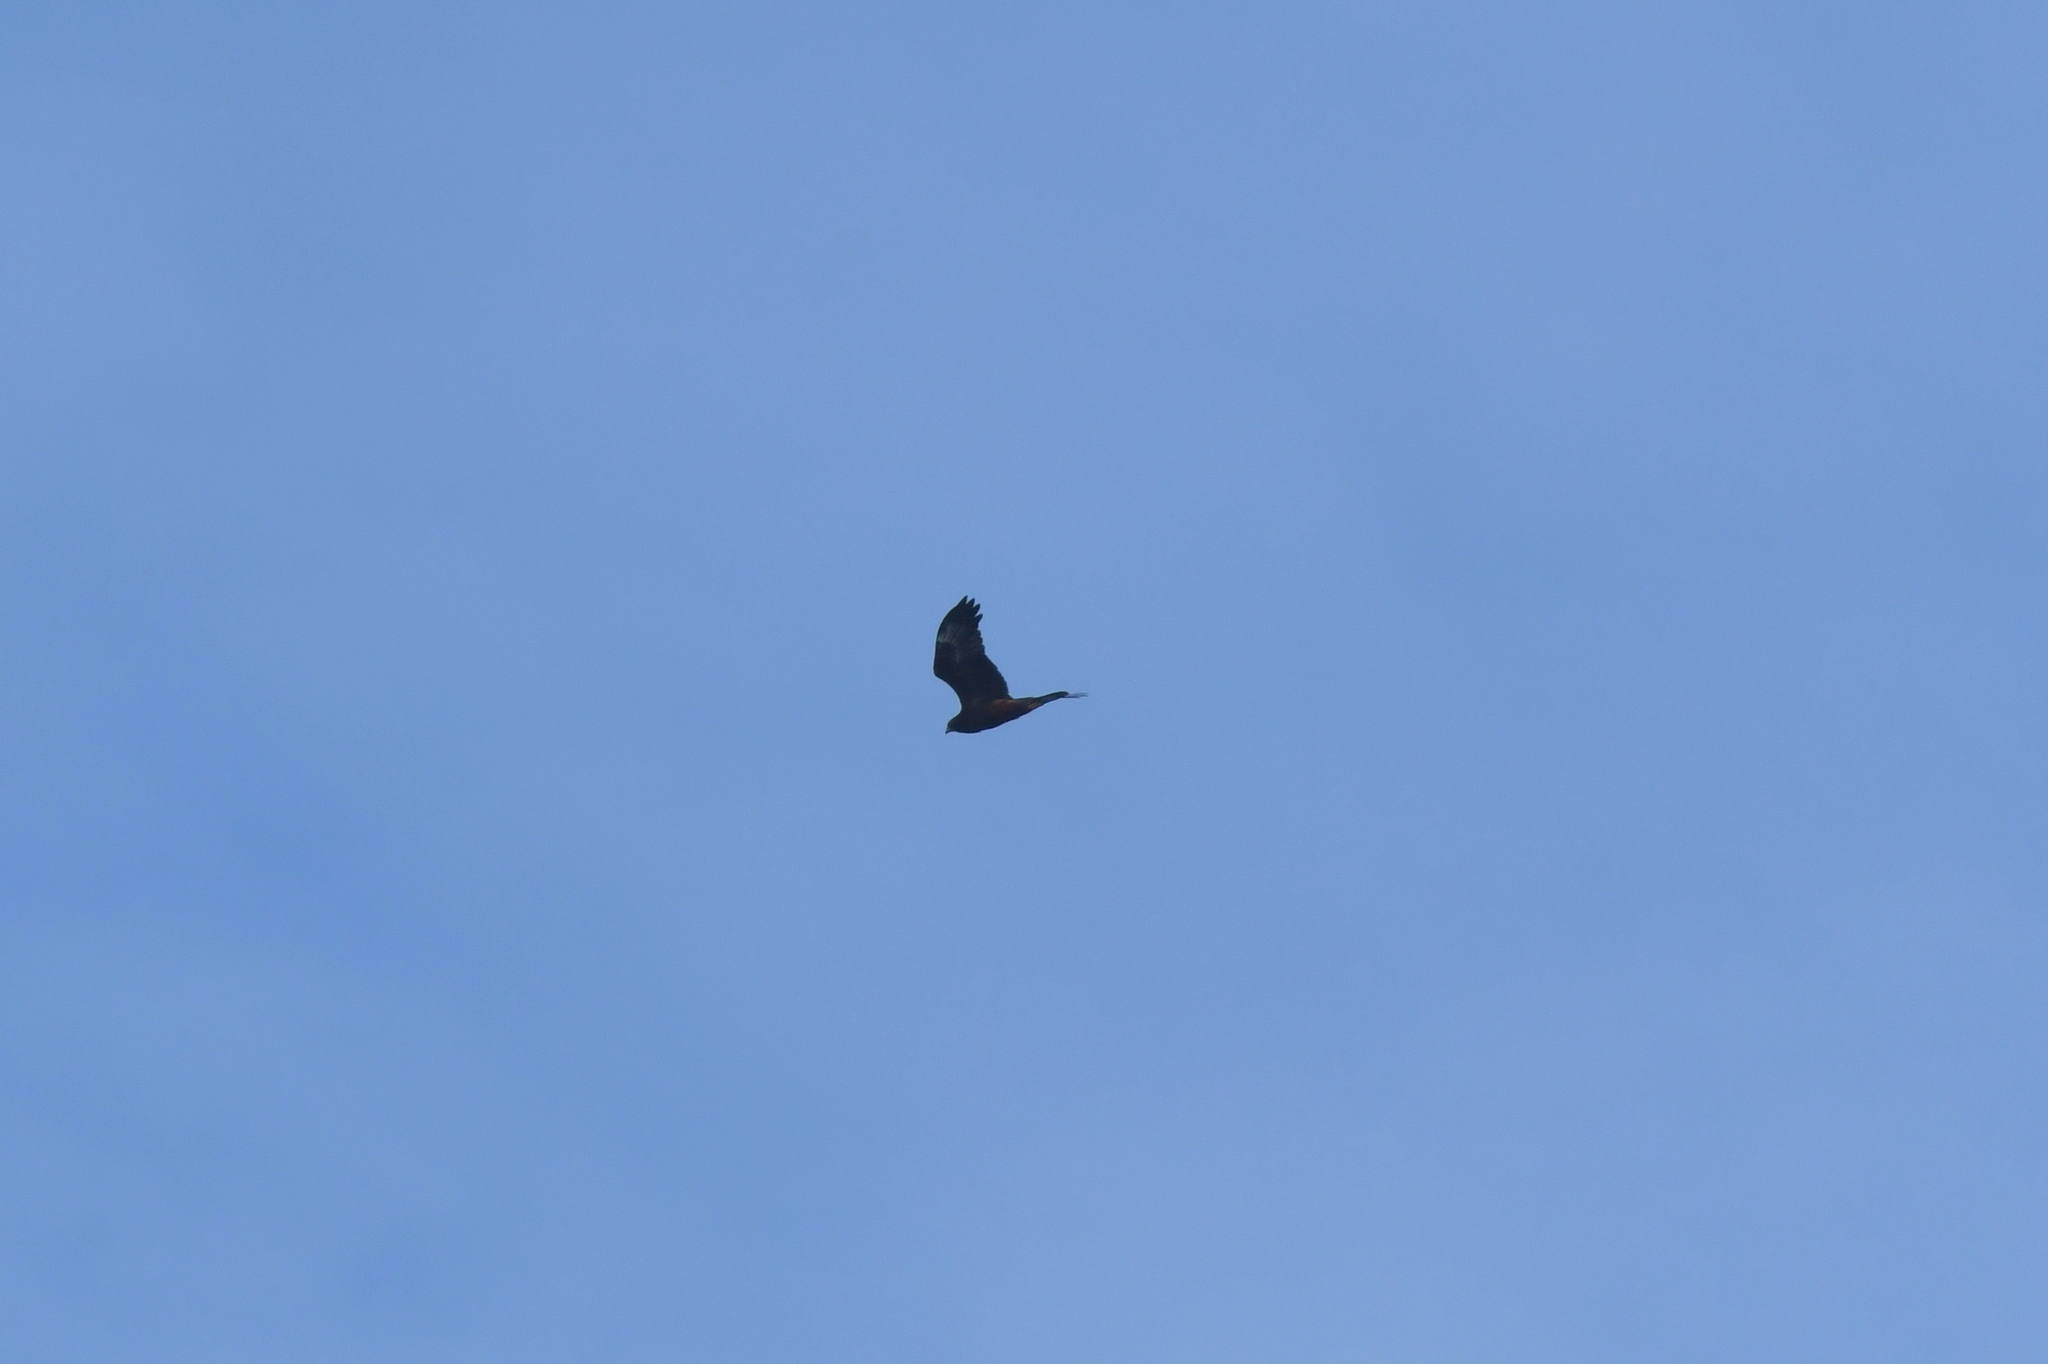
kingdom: Animalia
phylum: Chordata
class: Aves
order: Accipitriformes
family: Accipitridae
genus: Circus
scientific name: Circus approximans
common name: Swamp harrier
